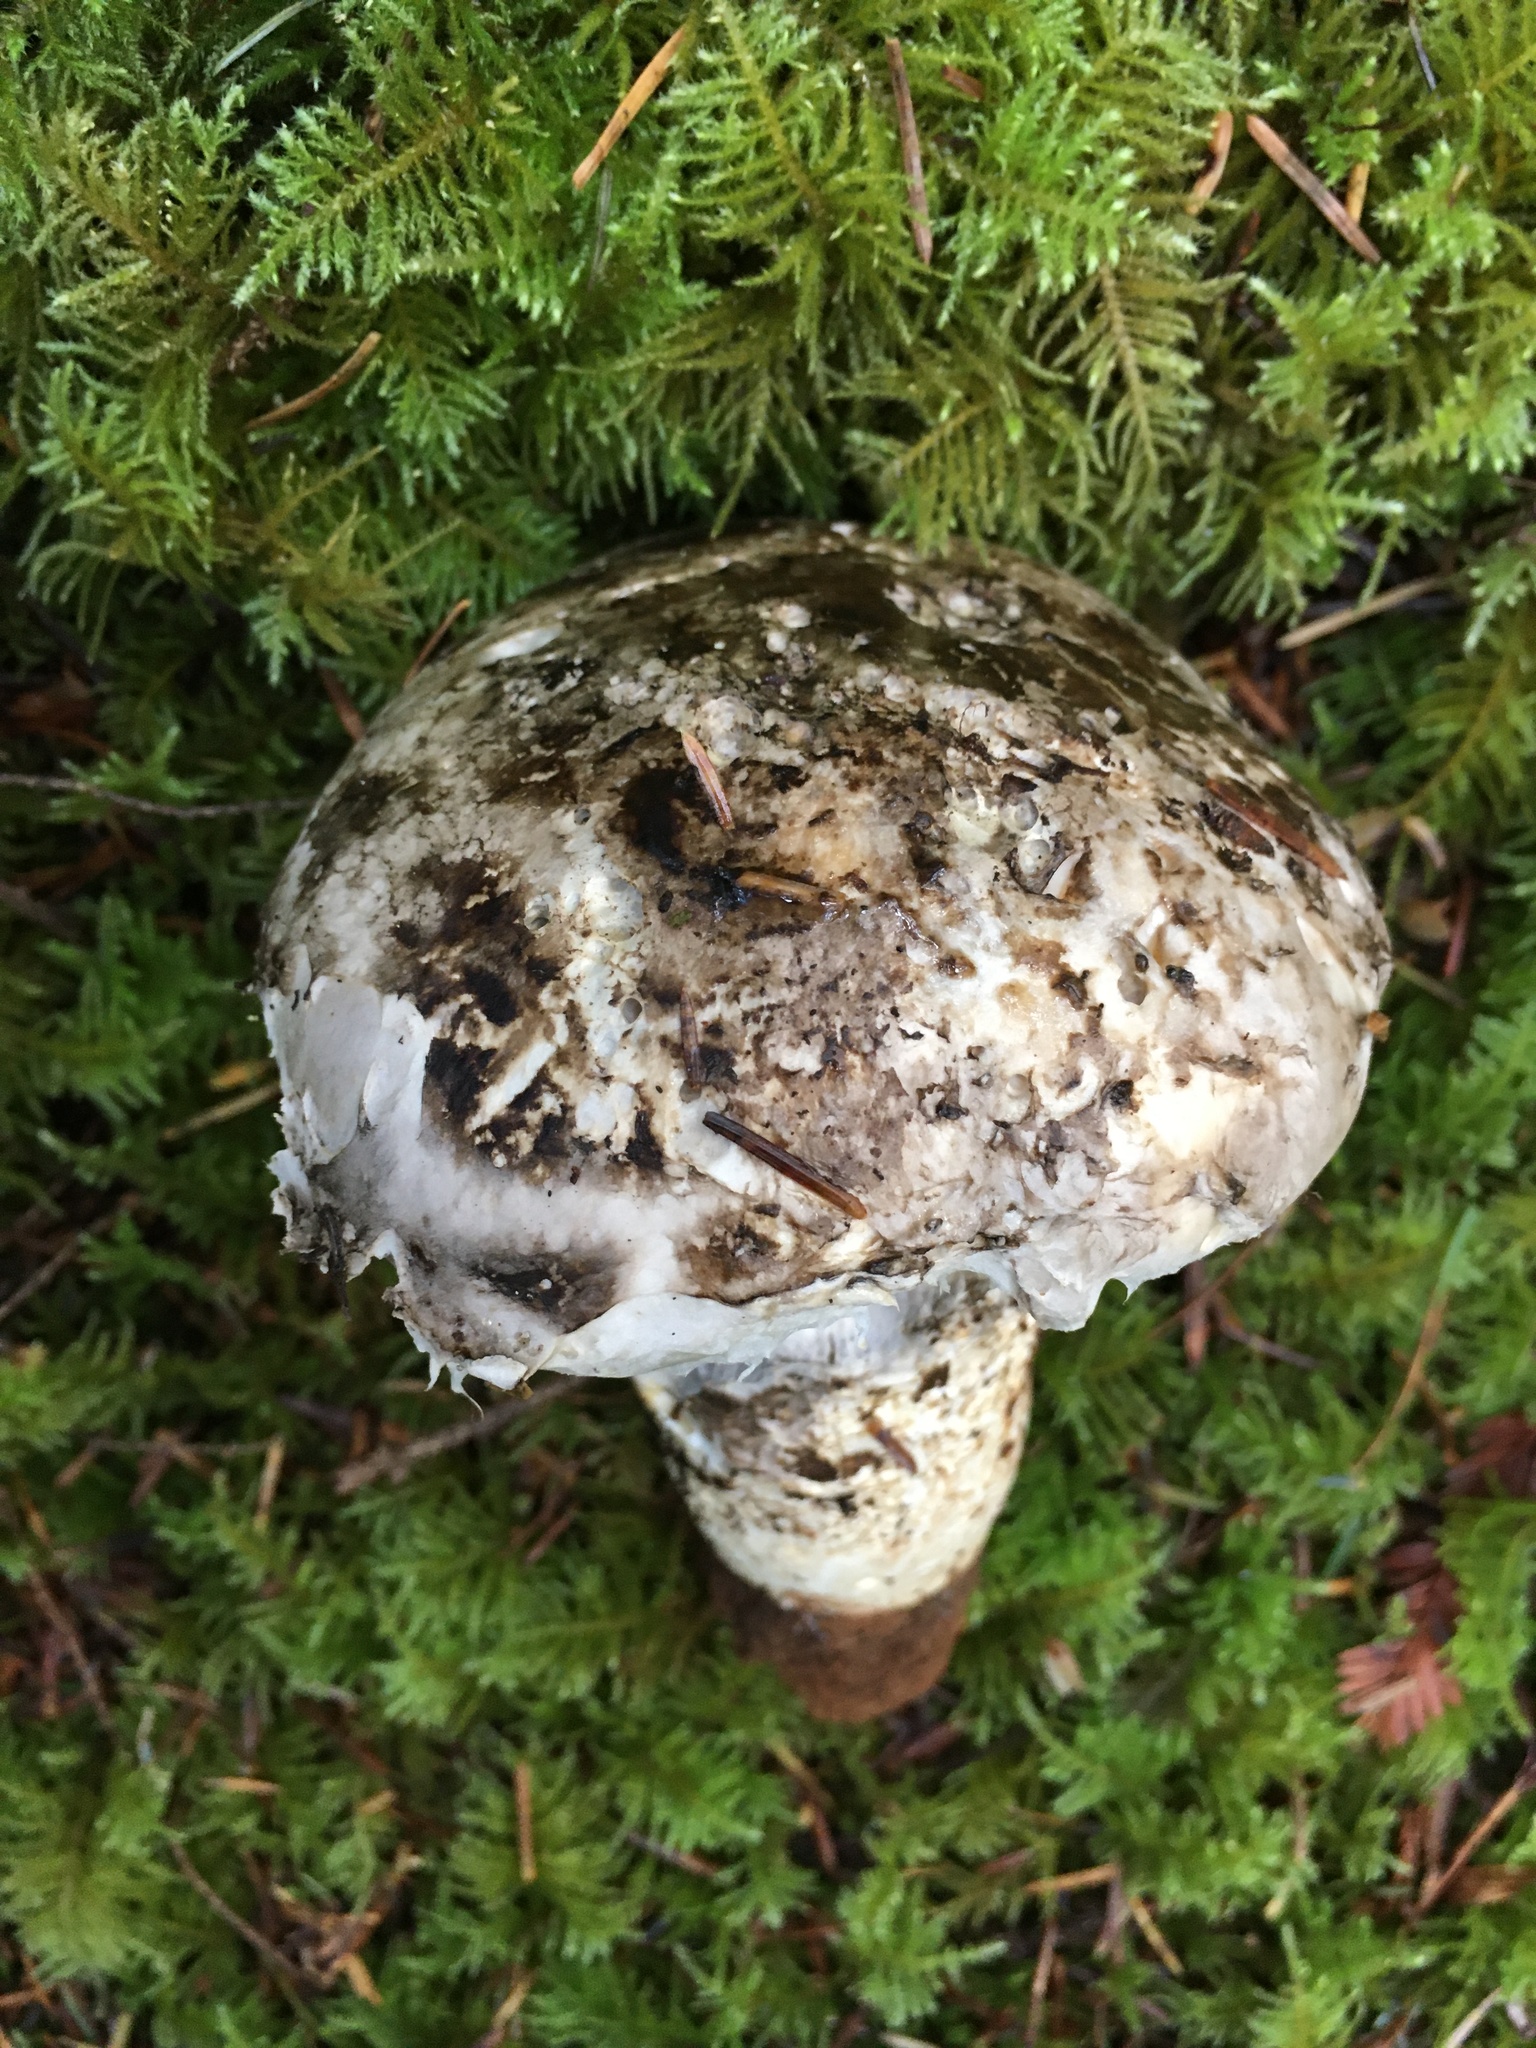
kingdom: Fungi
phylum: Basidiomycota
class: Agaricomycetes
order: Agaricales
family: Biannulariaceae
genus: Catathelasma
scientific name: Catathelasma ventricosum
